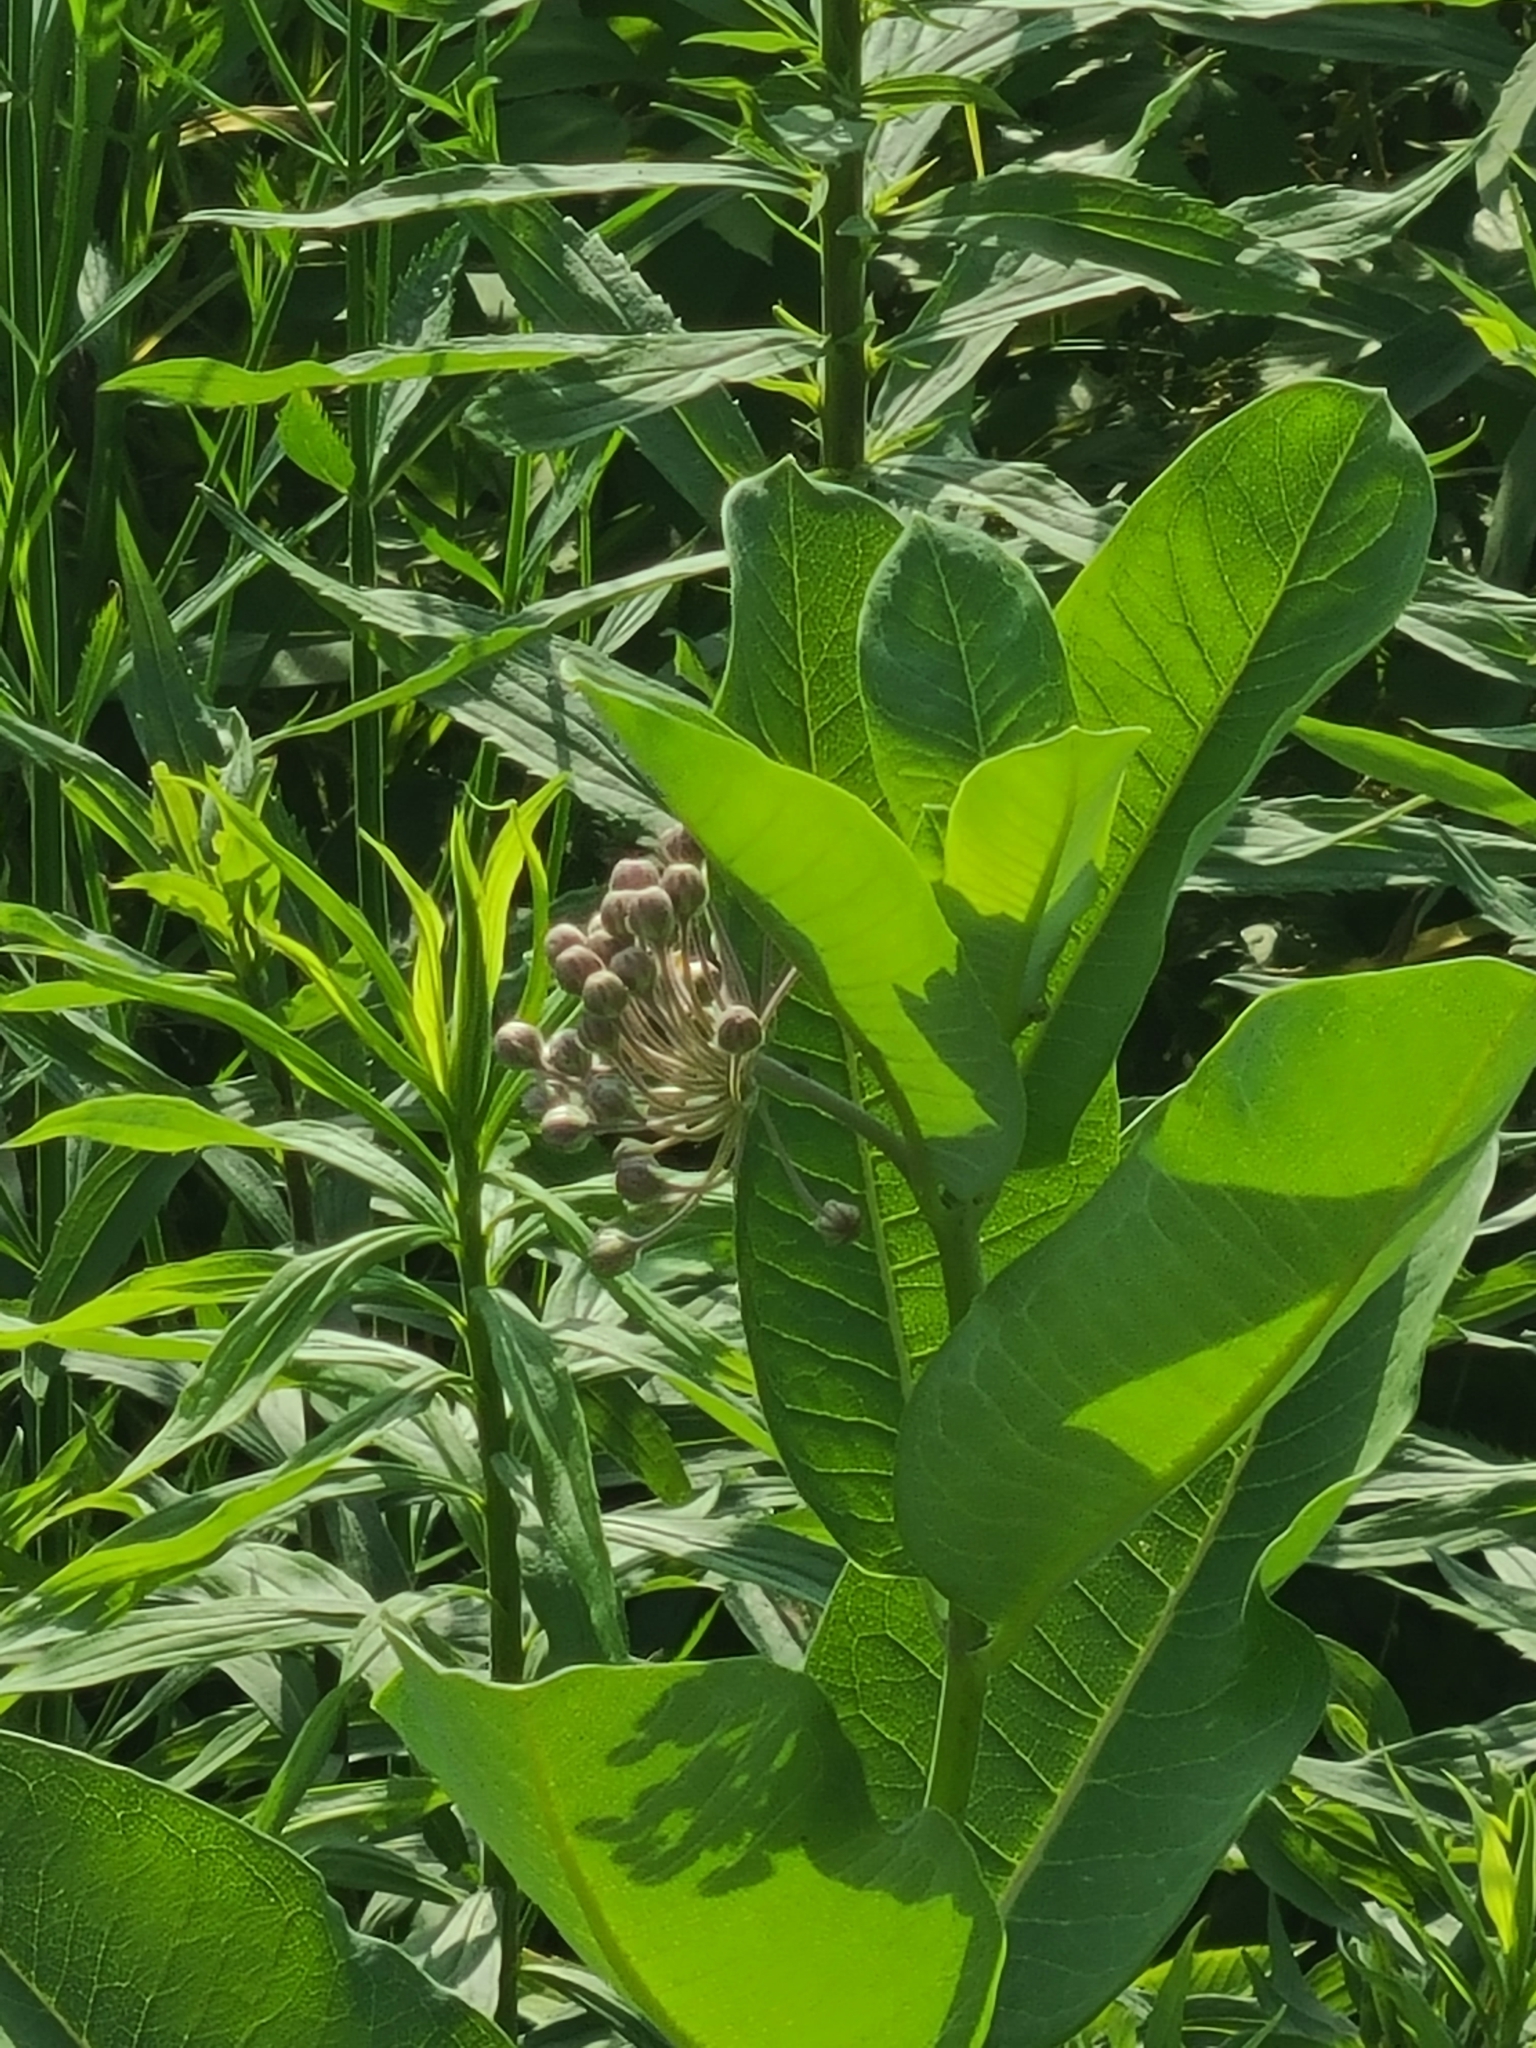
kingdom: Plantae
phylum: Tracheophyta
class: Magnoliopsida
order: Gentianales
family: Apocynaceae
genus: Asclepias
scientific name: Asclepias syriaca
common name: Common milkweed
